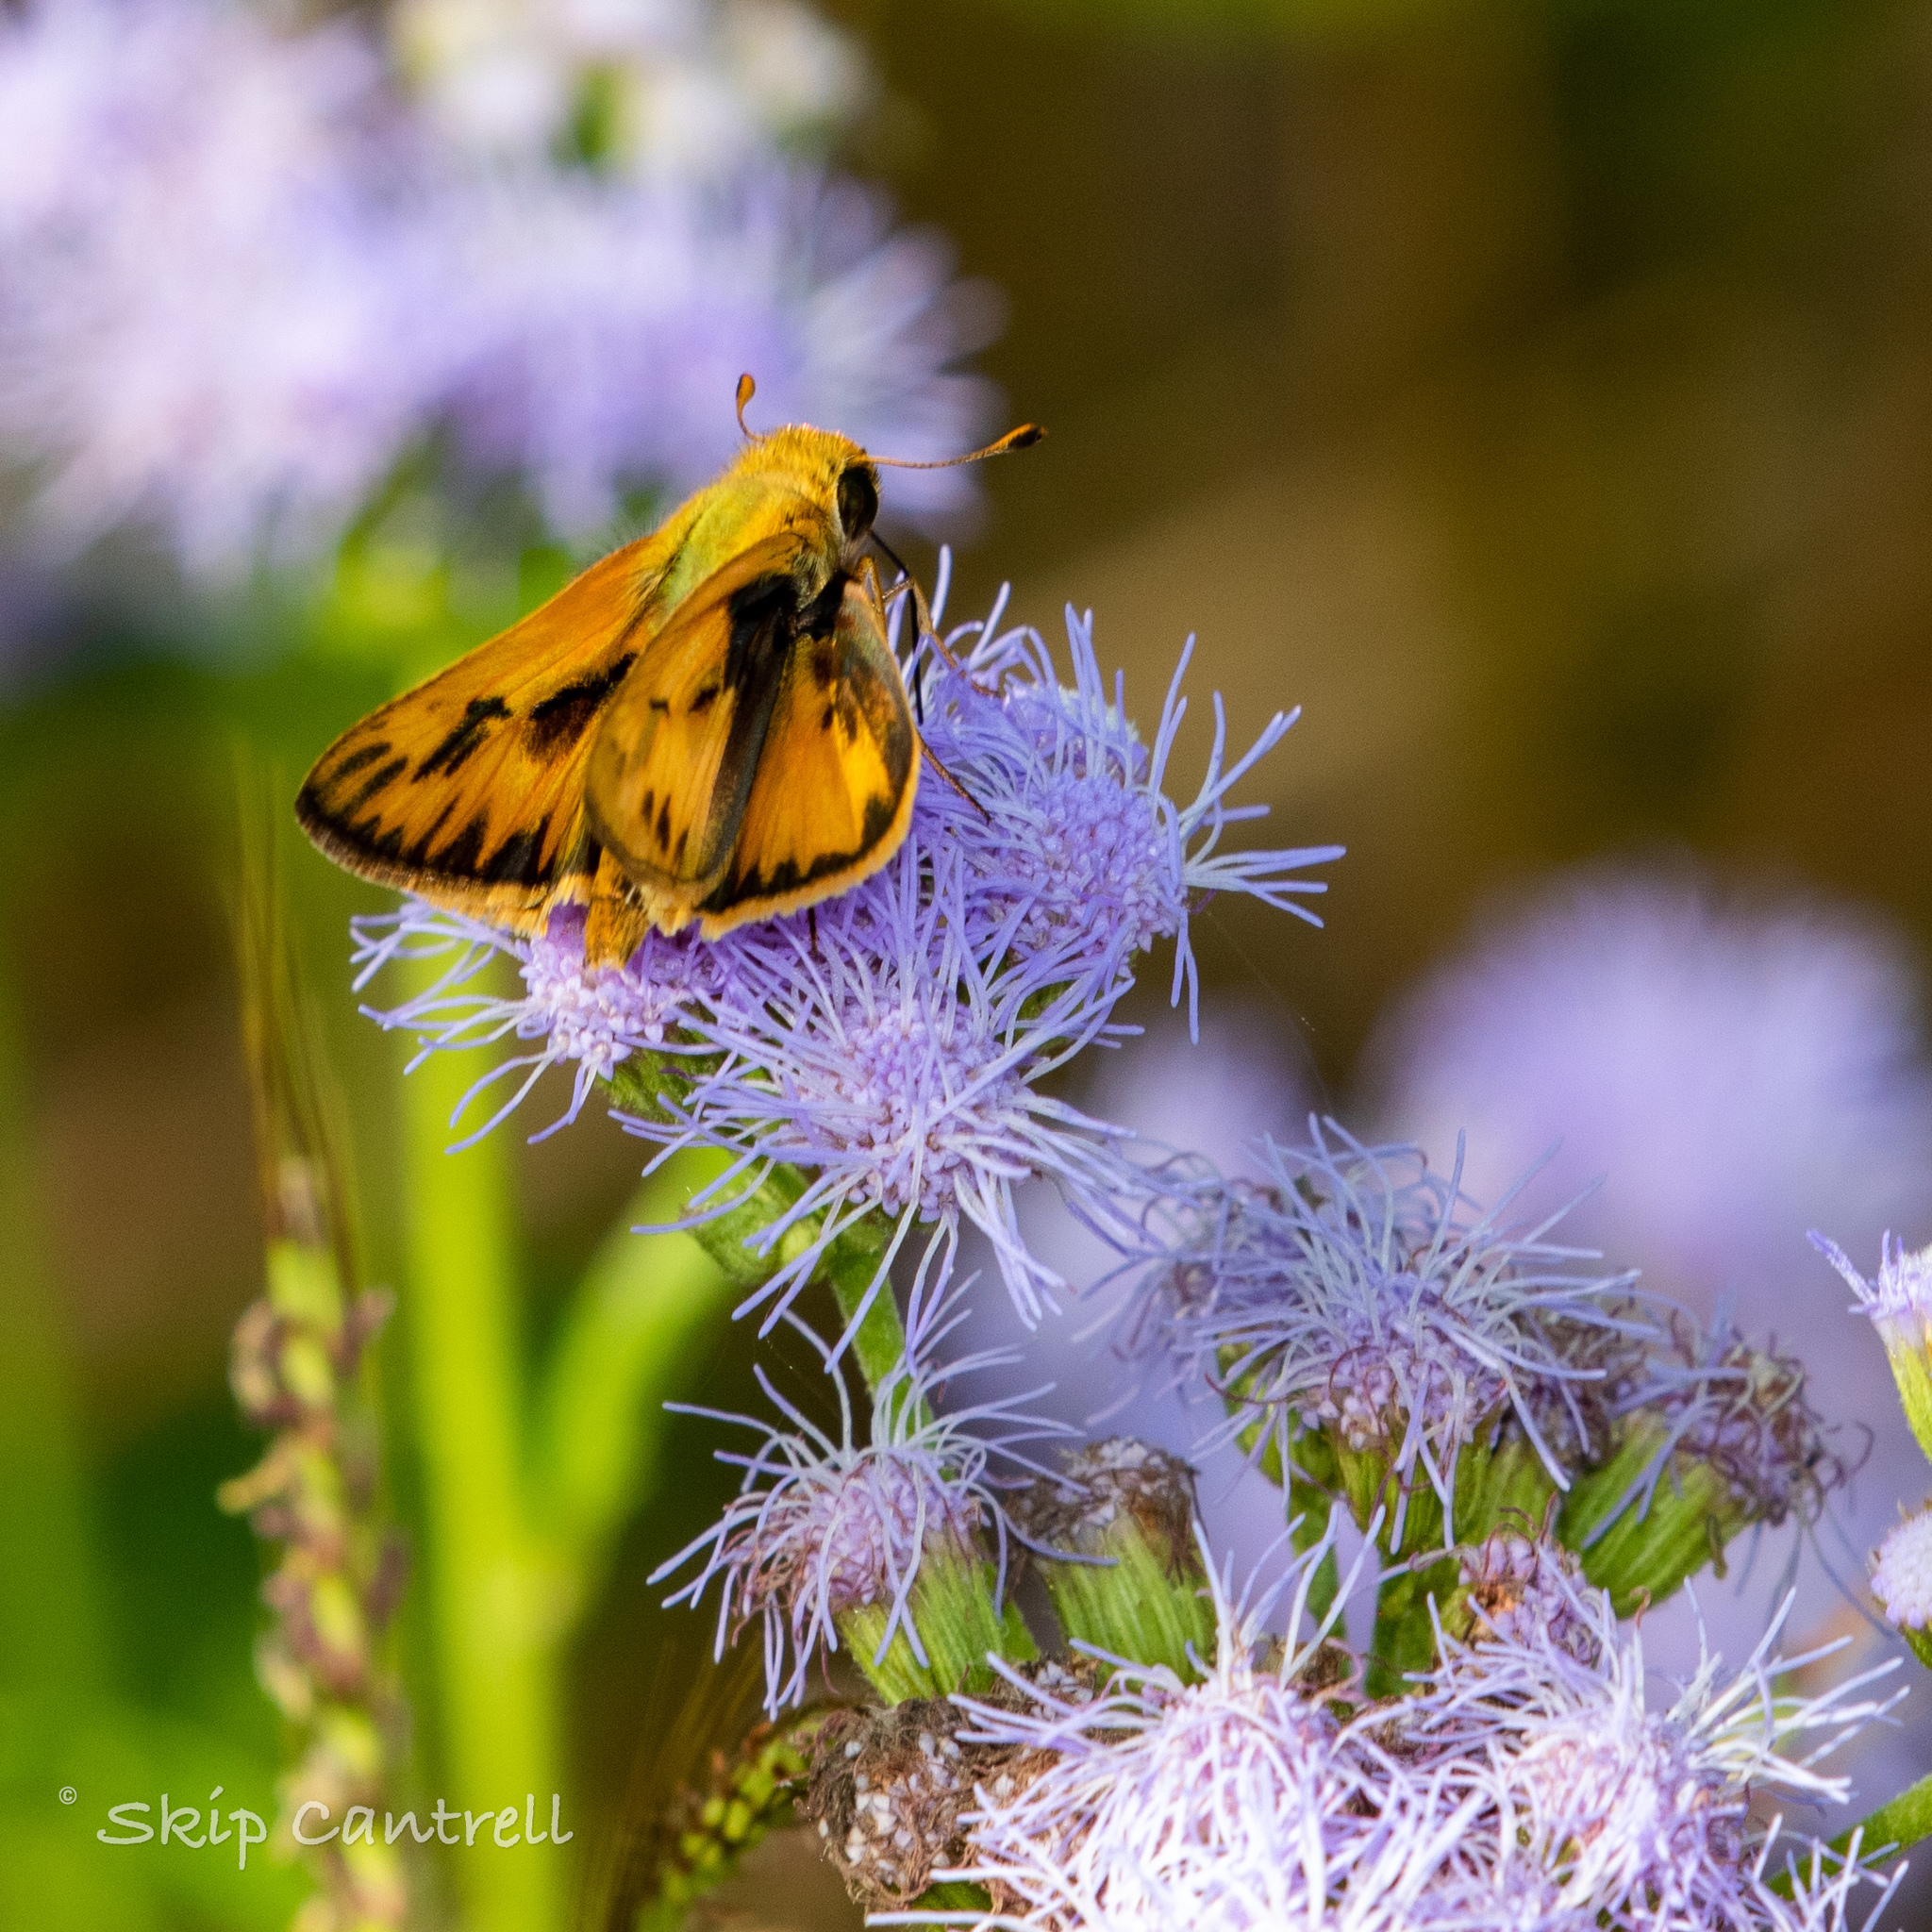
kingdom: Animalia
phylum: Arthropoda
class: Insecta
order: Lepidoptera
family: Hesperiidae
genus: Hylephila
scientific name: Hylephila phyleus
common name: Fiery skipper
